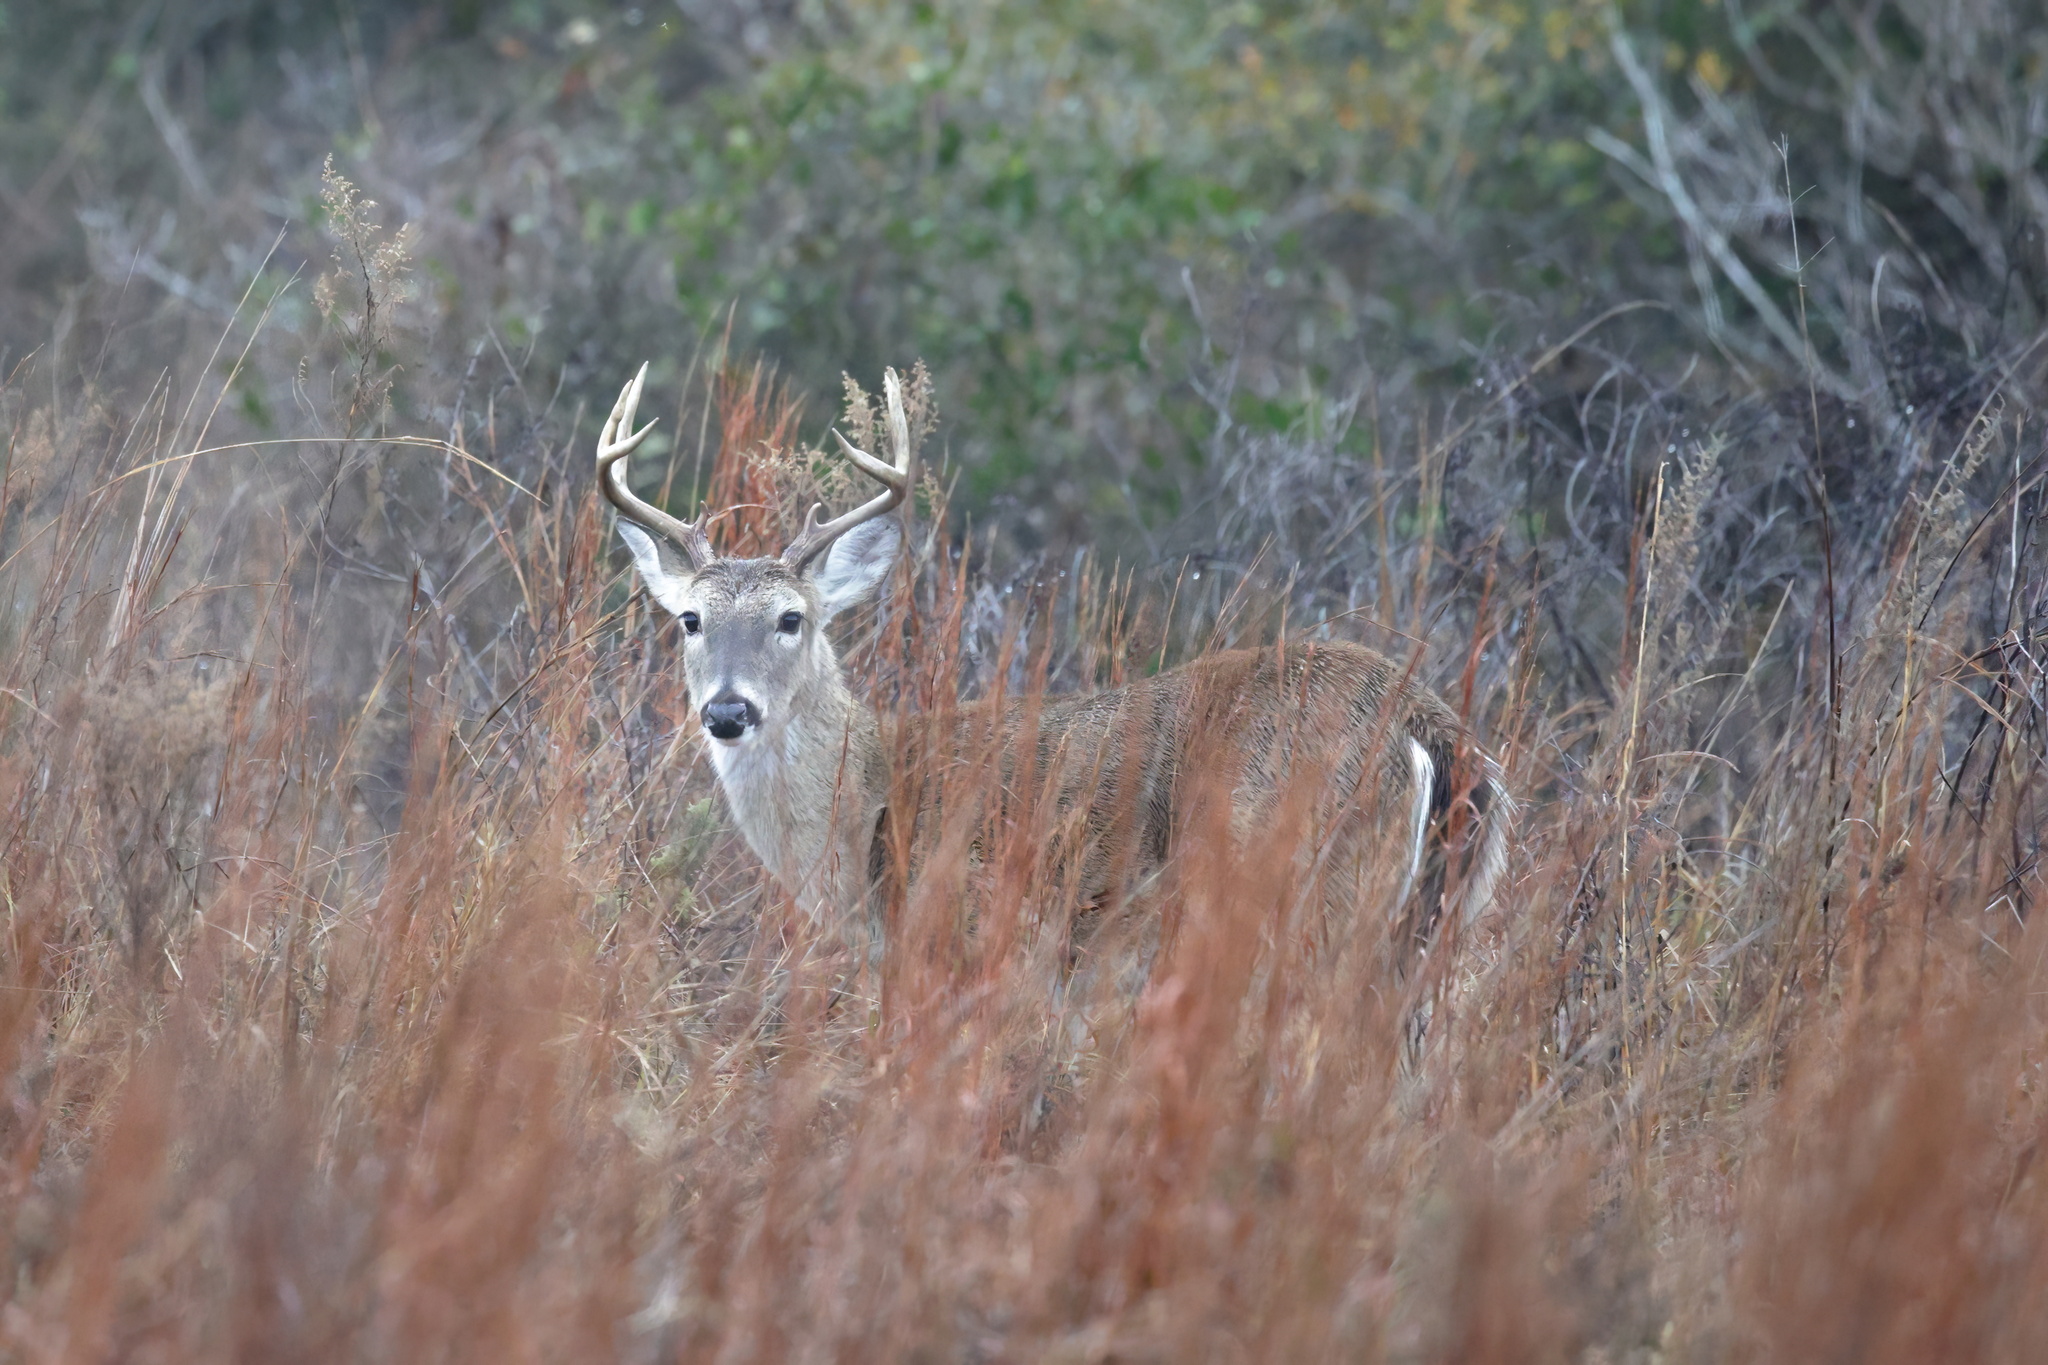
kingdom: Animalia
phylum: Chordata
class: Mammalia
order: Artiodactyla
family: Cervidae
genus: Odocoileus
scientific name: Odocoileus virginianus
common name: White-tailed deer
